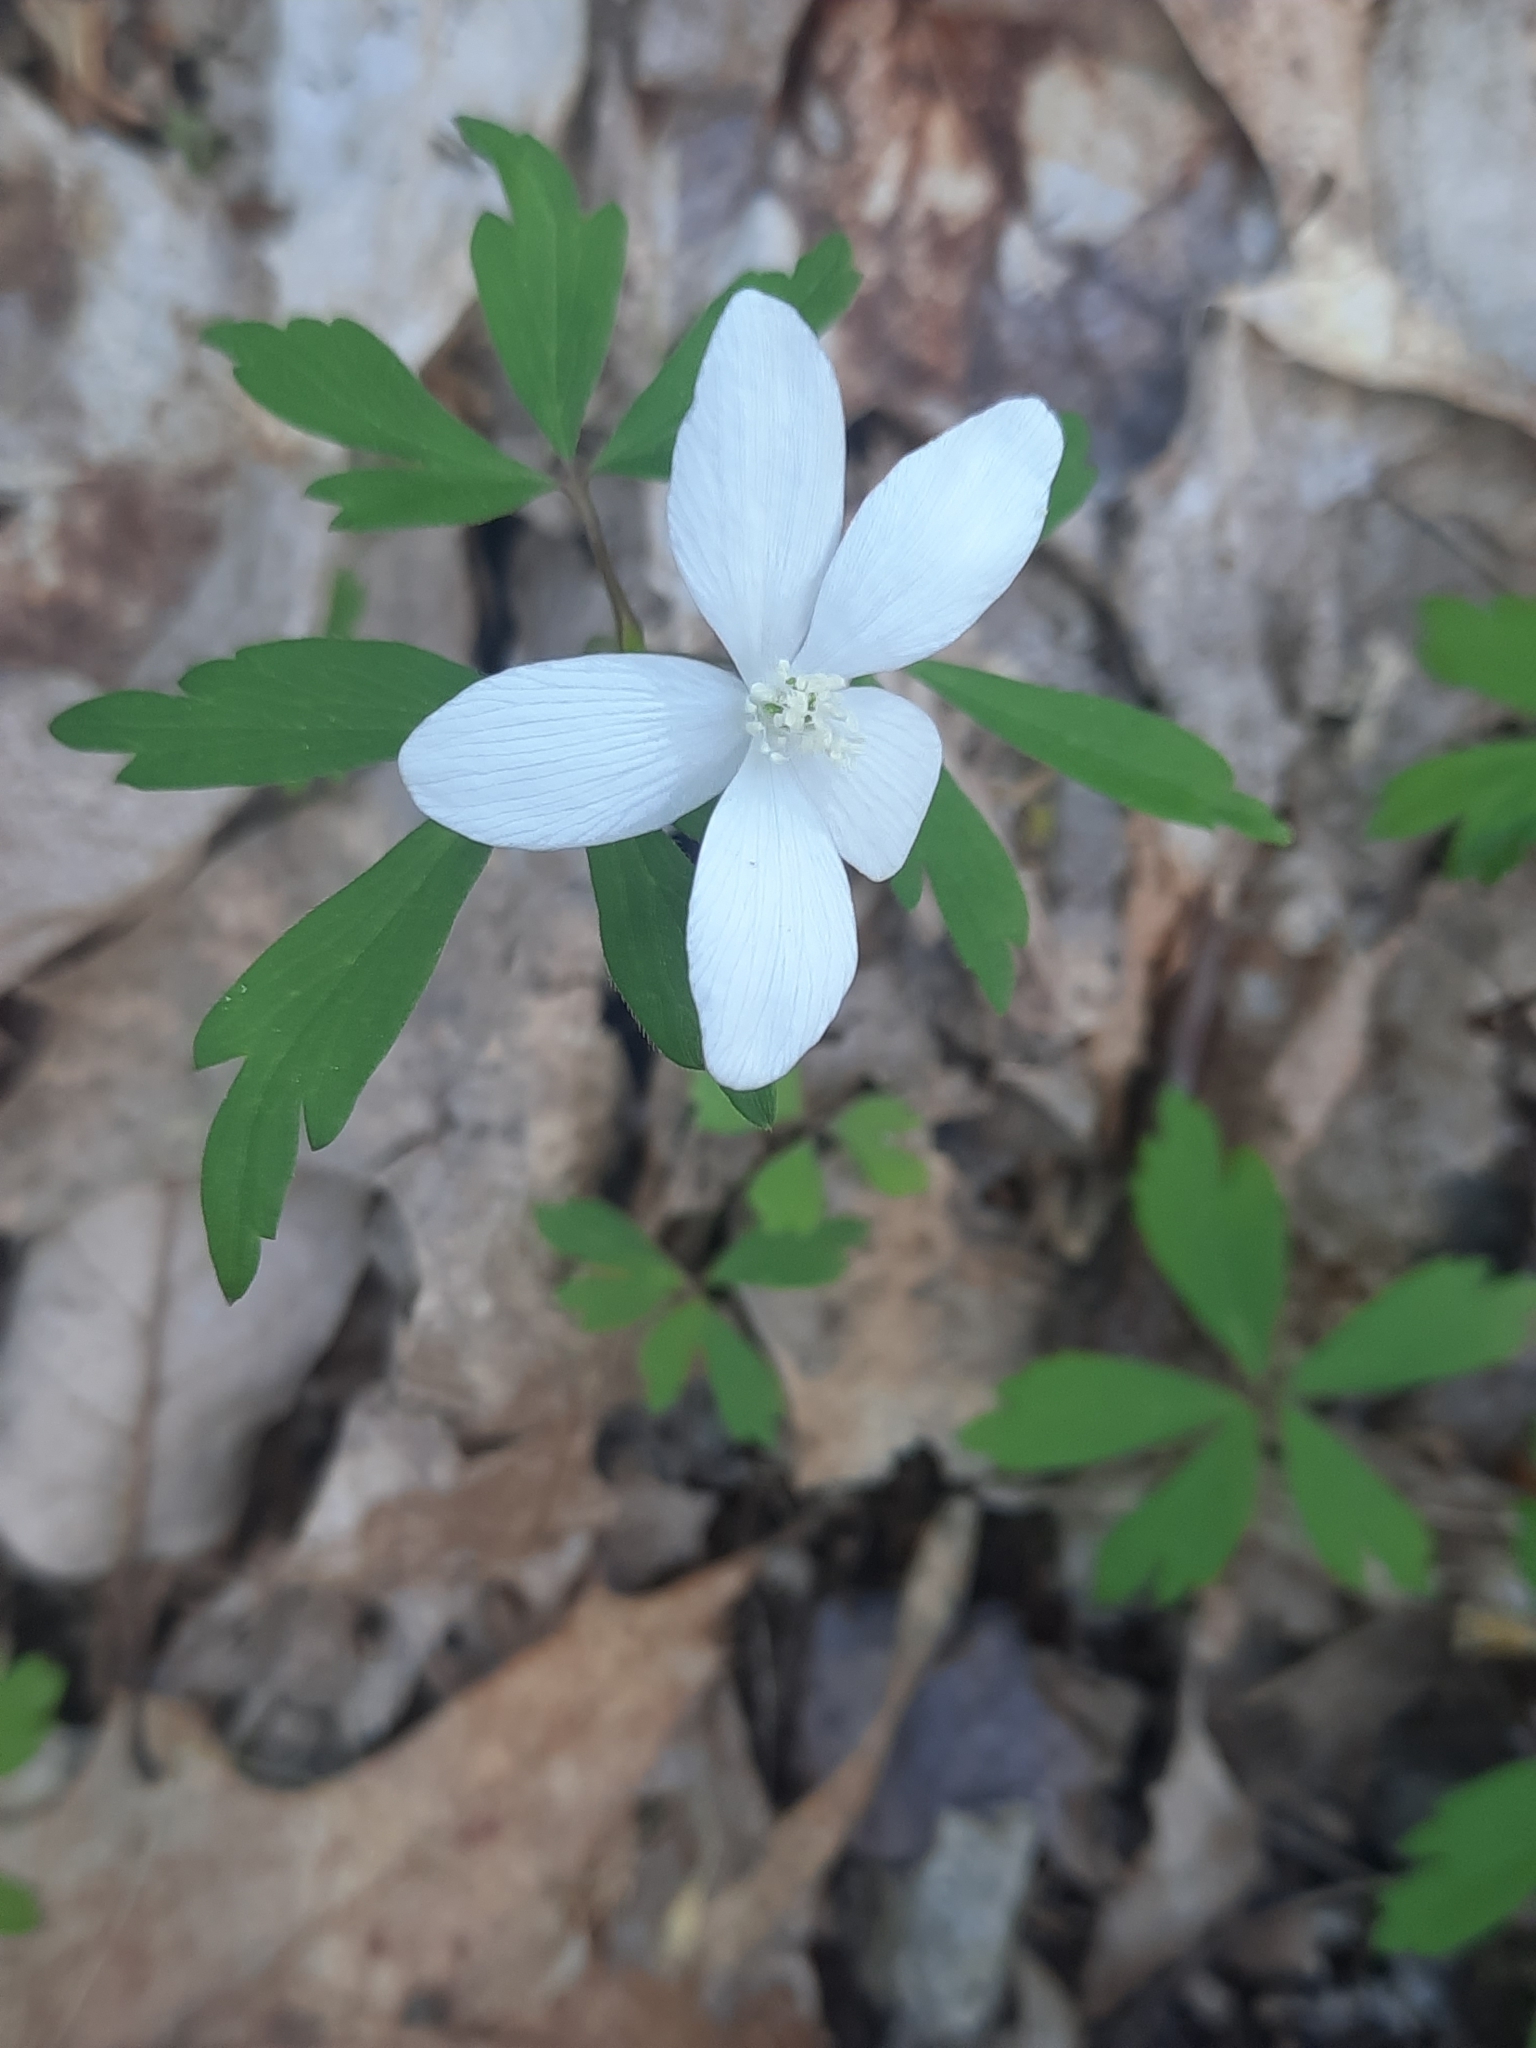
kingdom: Plantae
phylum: Tracheophyta
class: Magnoliopsida
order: Ranunculales
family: Ranunculaceae
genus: Anemone
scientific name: Anemone quinquefolia
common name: Wood anemone
